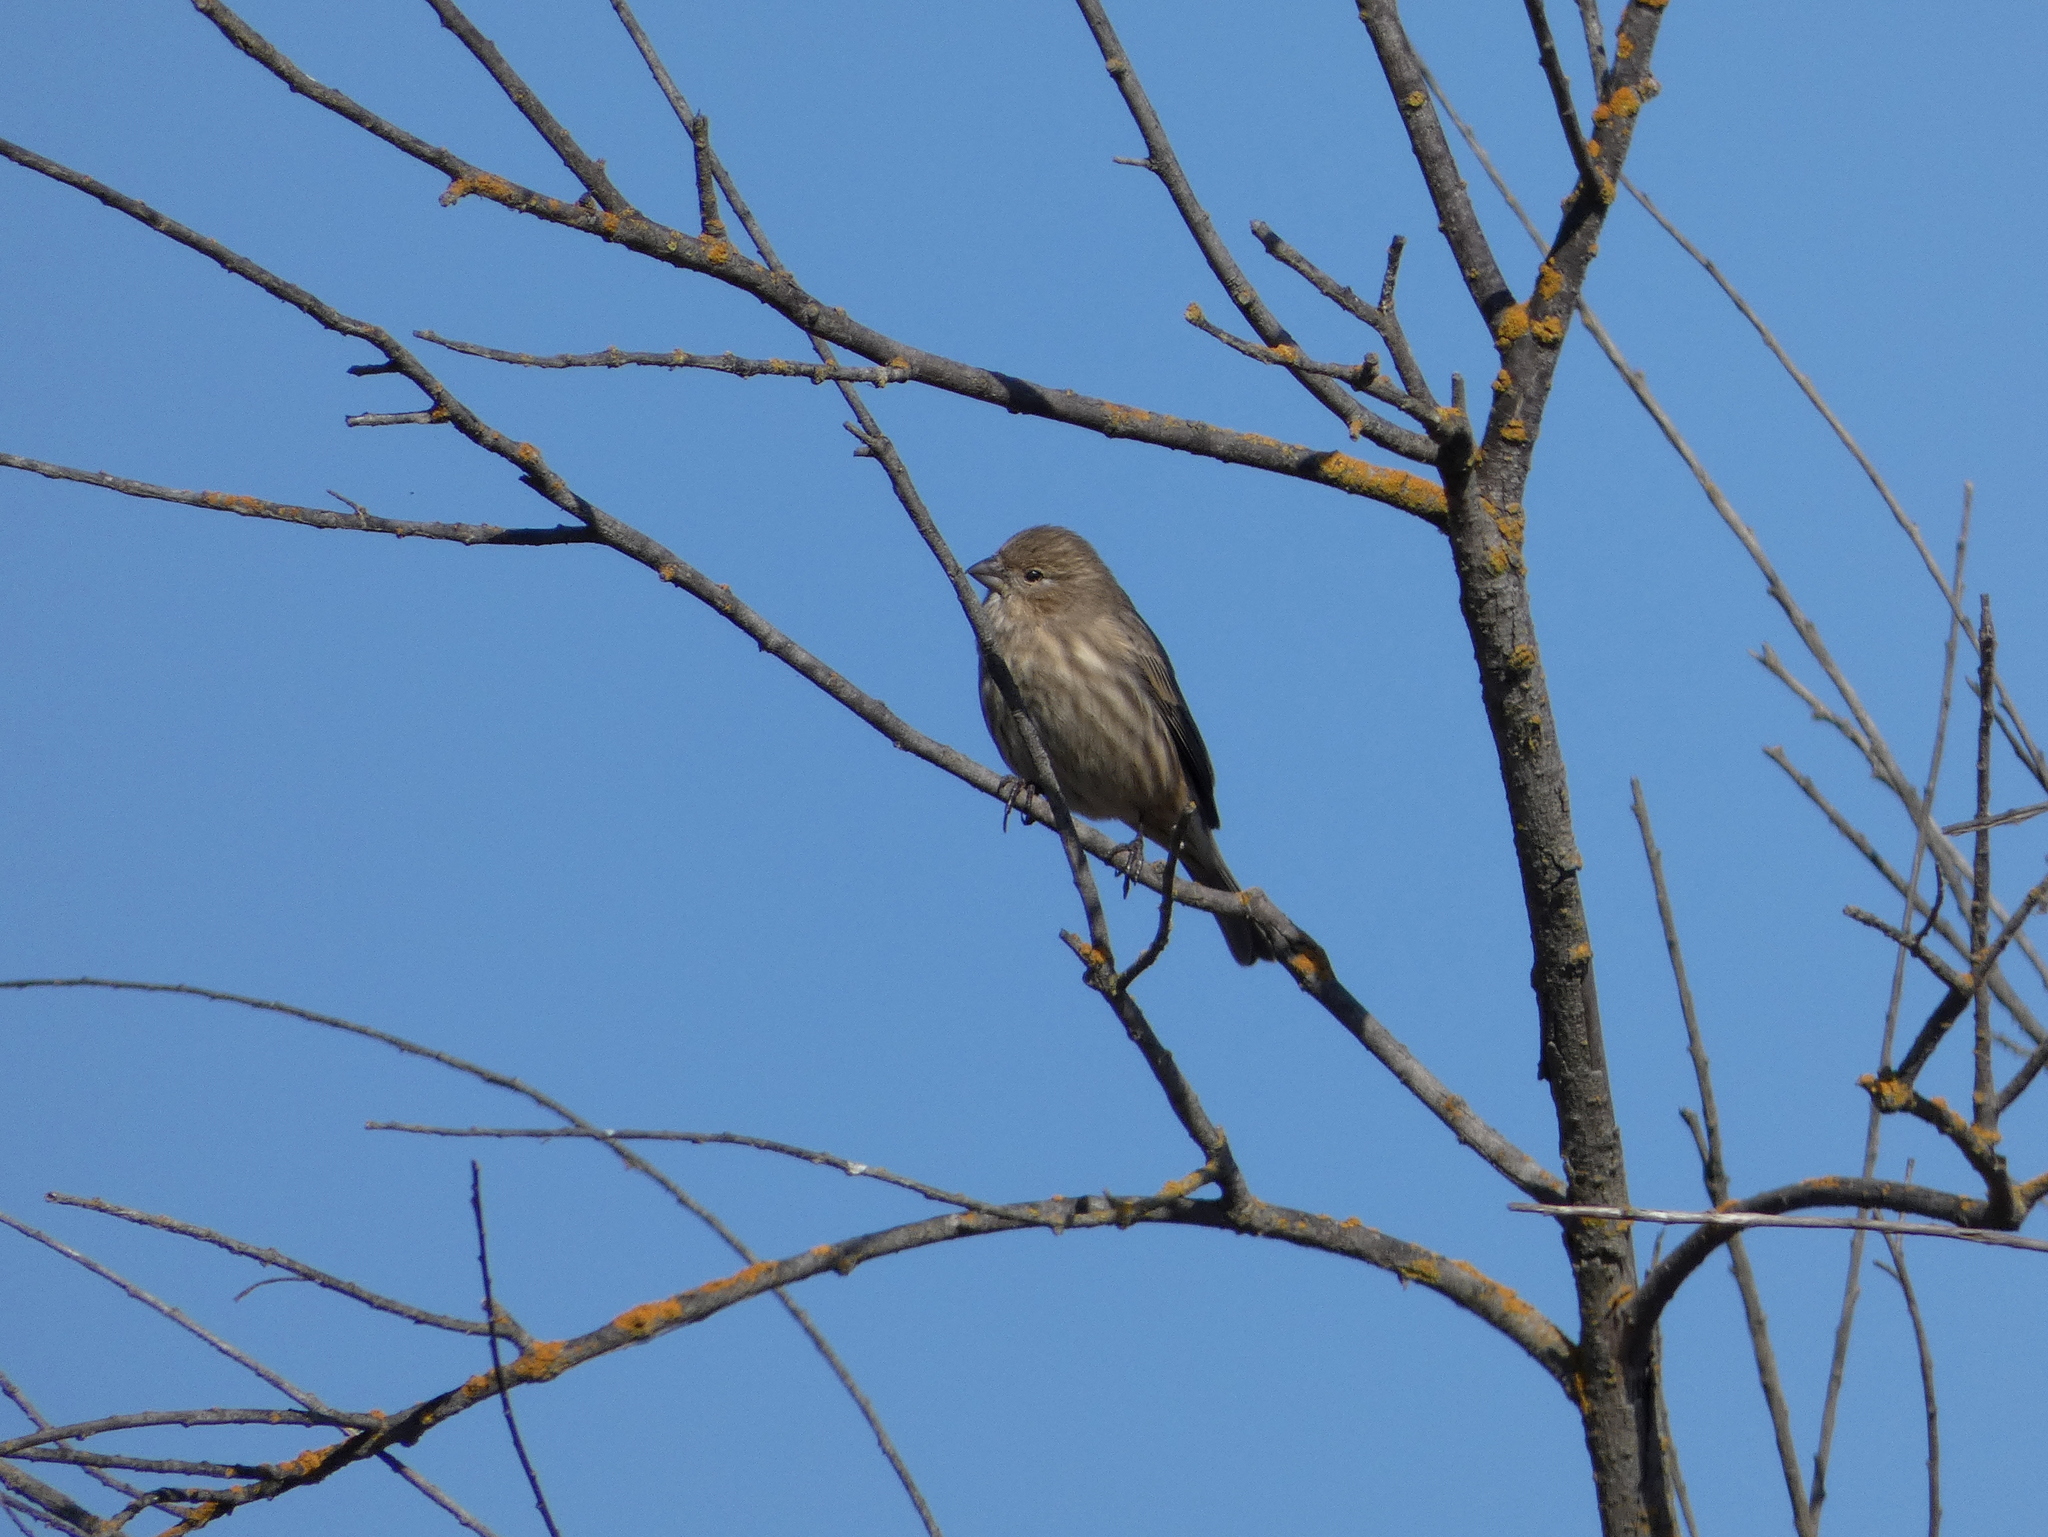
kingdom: Animalia
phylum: Chordata
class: Aves
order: Passeriformes
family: Fringillidae
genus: Haemorhous
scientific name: Haemorhous mexicanus
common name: House finch
